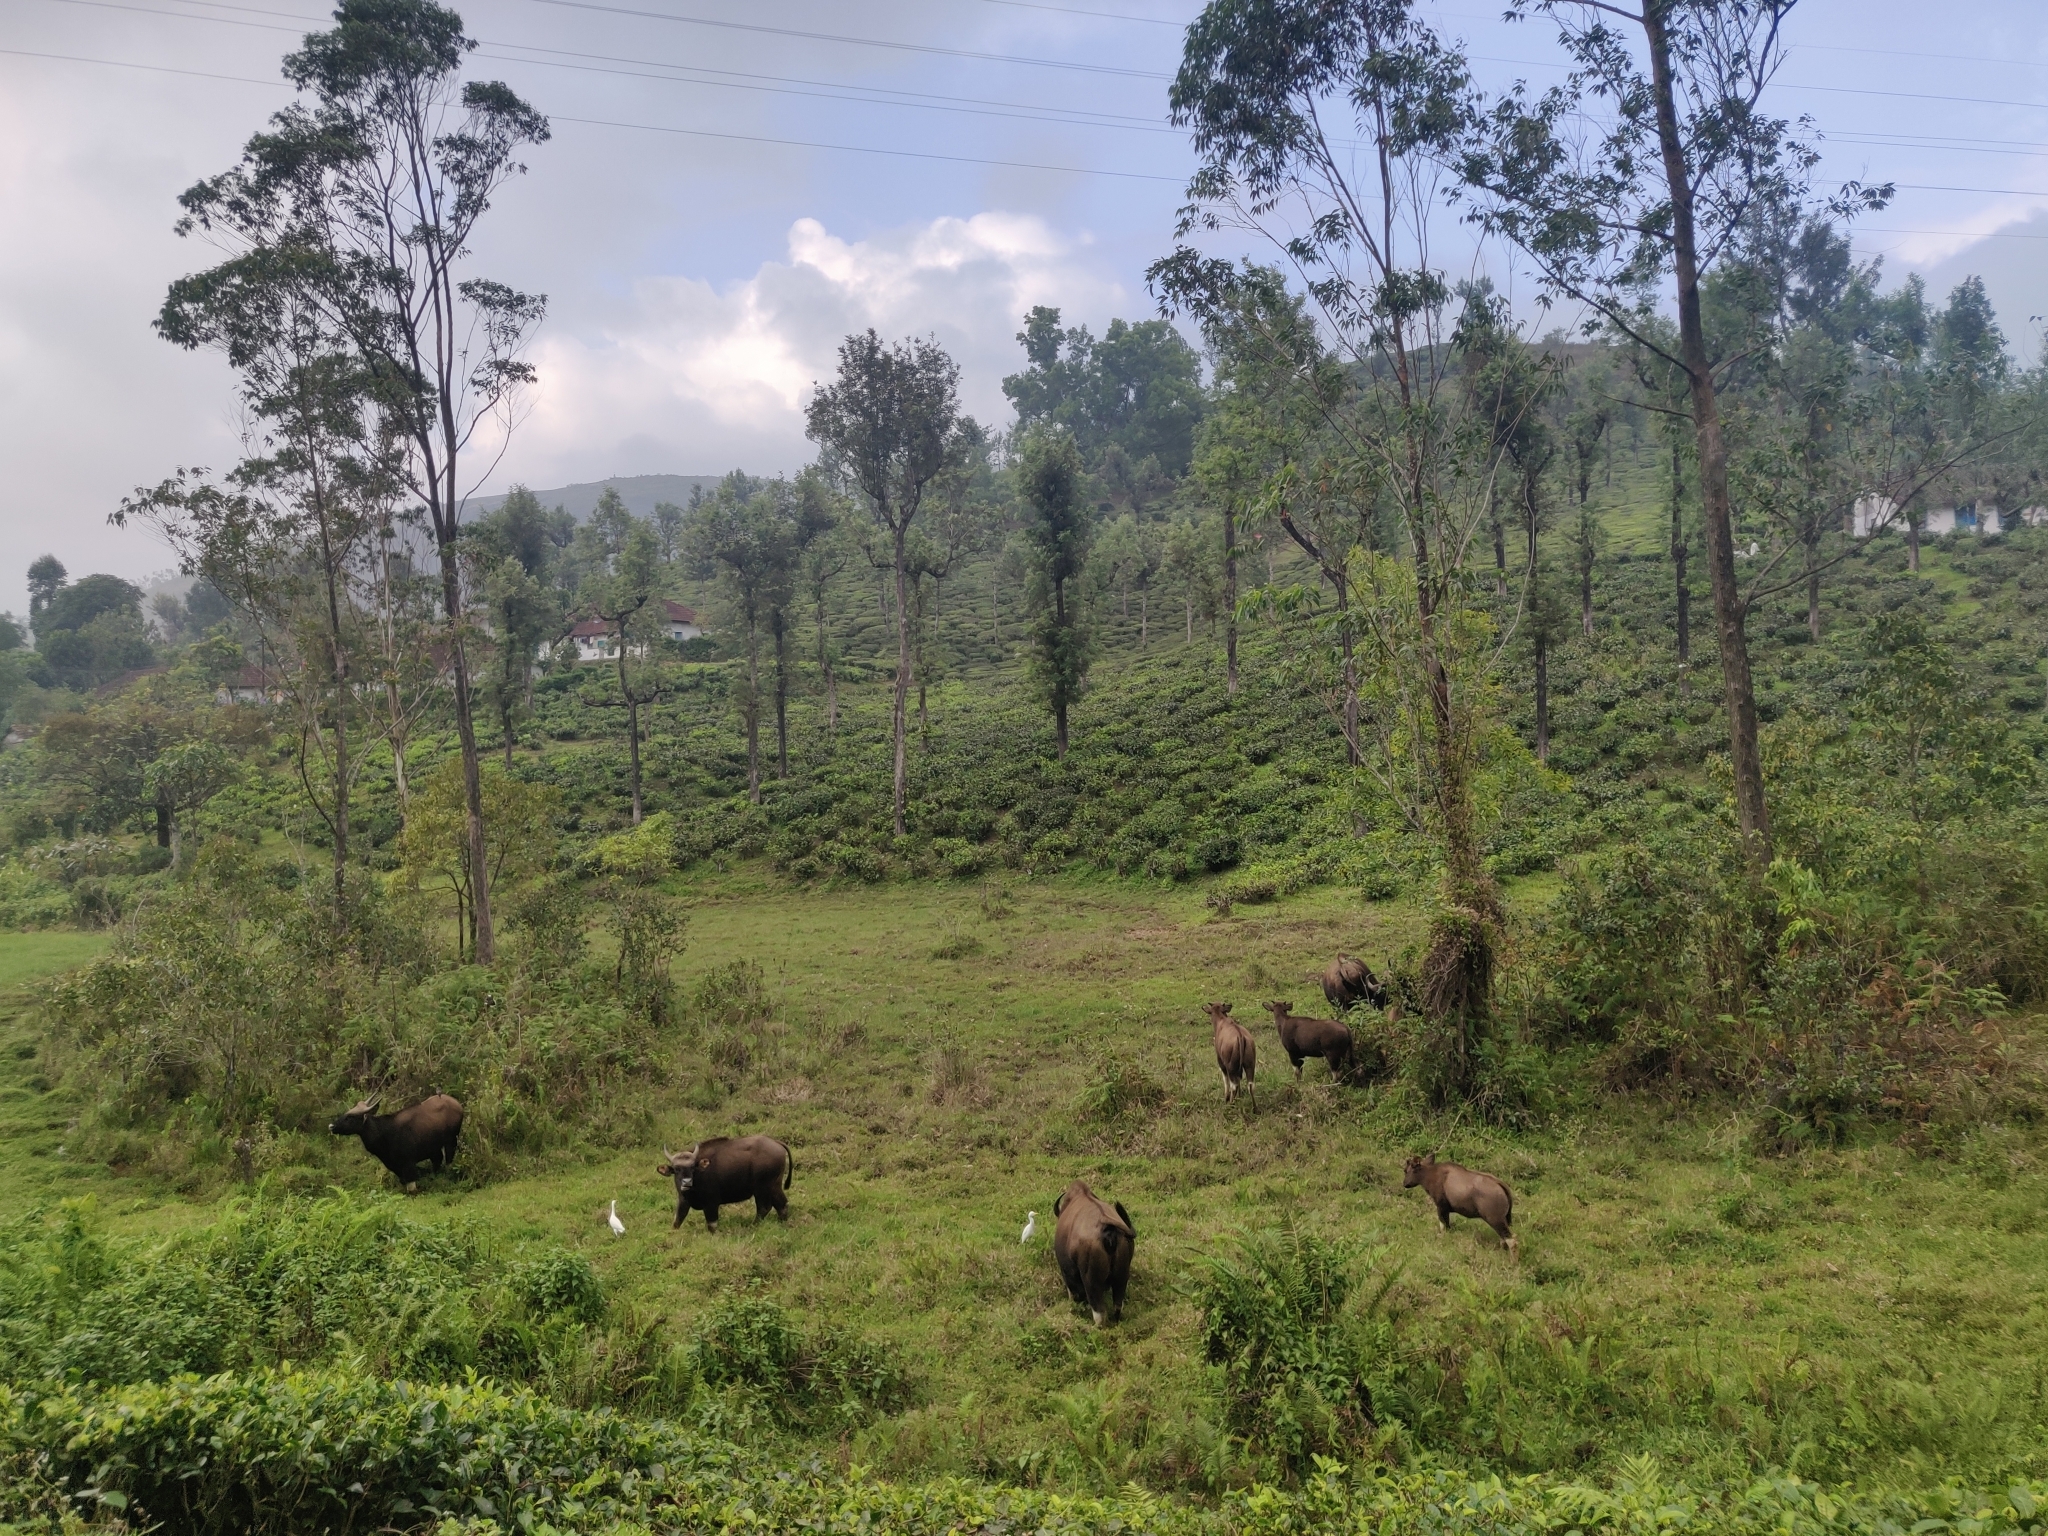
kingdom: Animalia
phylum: Chordata
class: Mammalia
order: Artiodactyla
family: Bovidae
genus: Bos
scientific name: Bos frontalis
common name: Gaur
